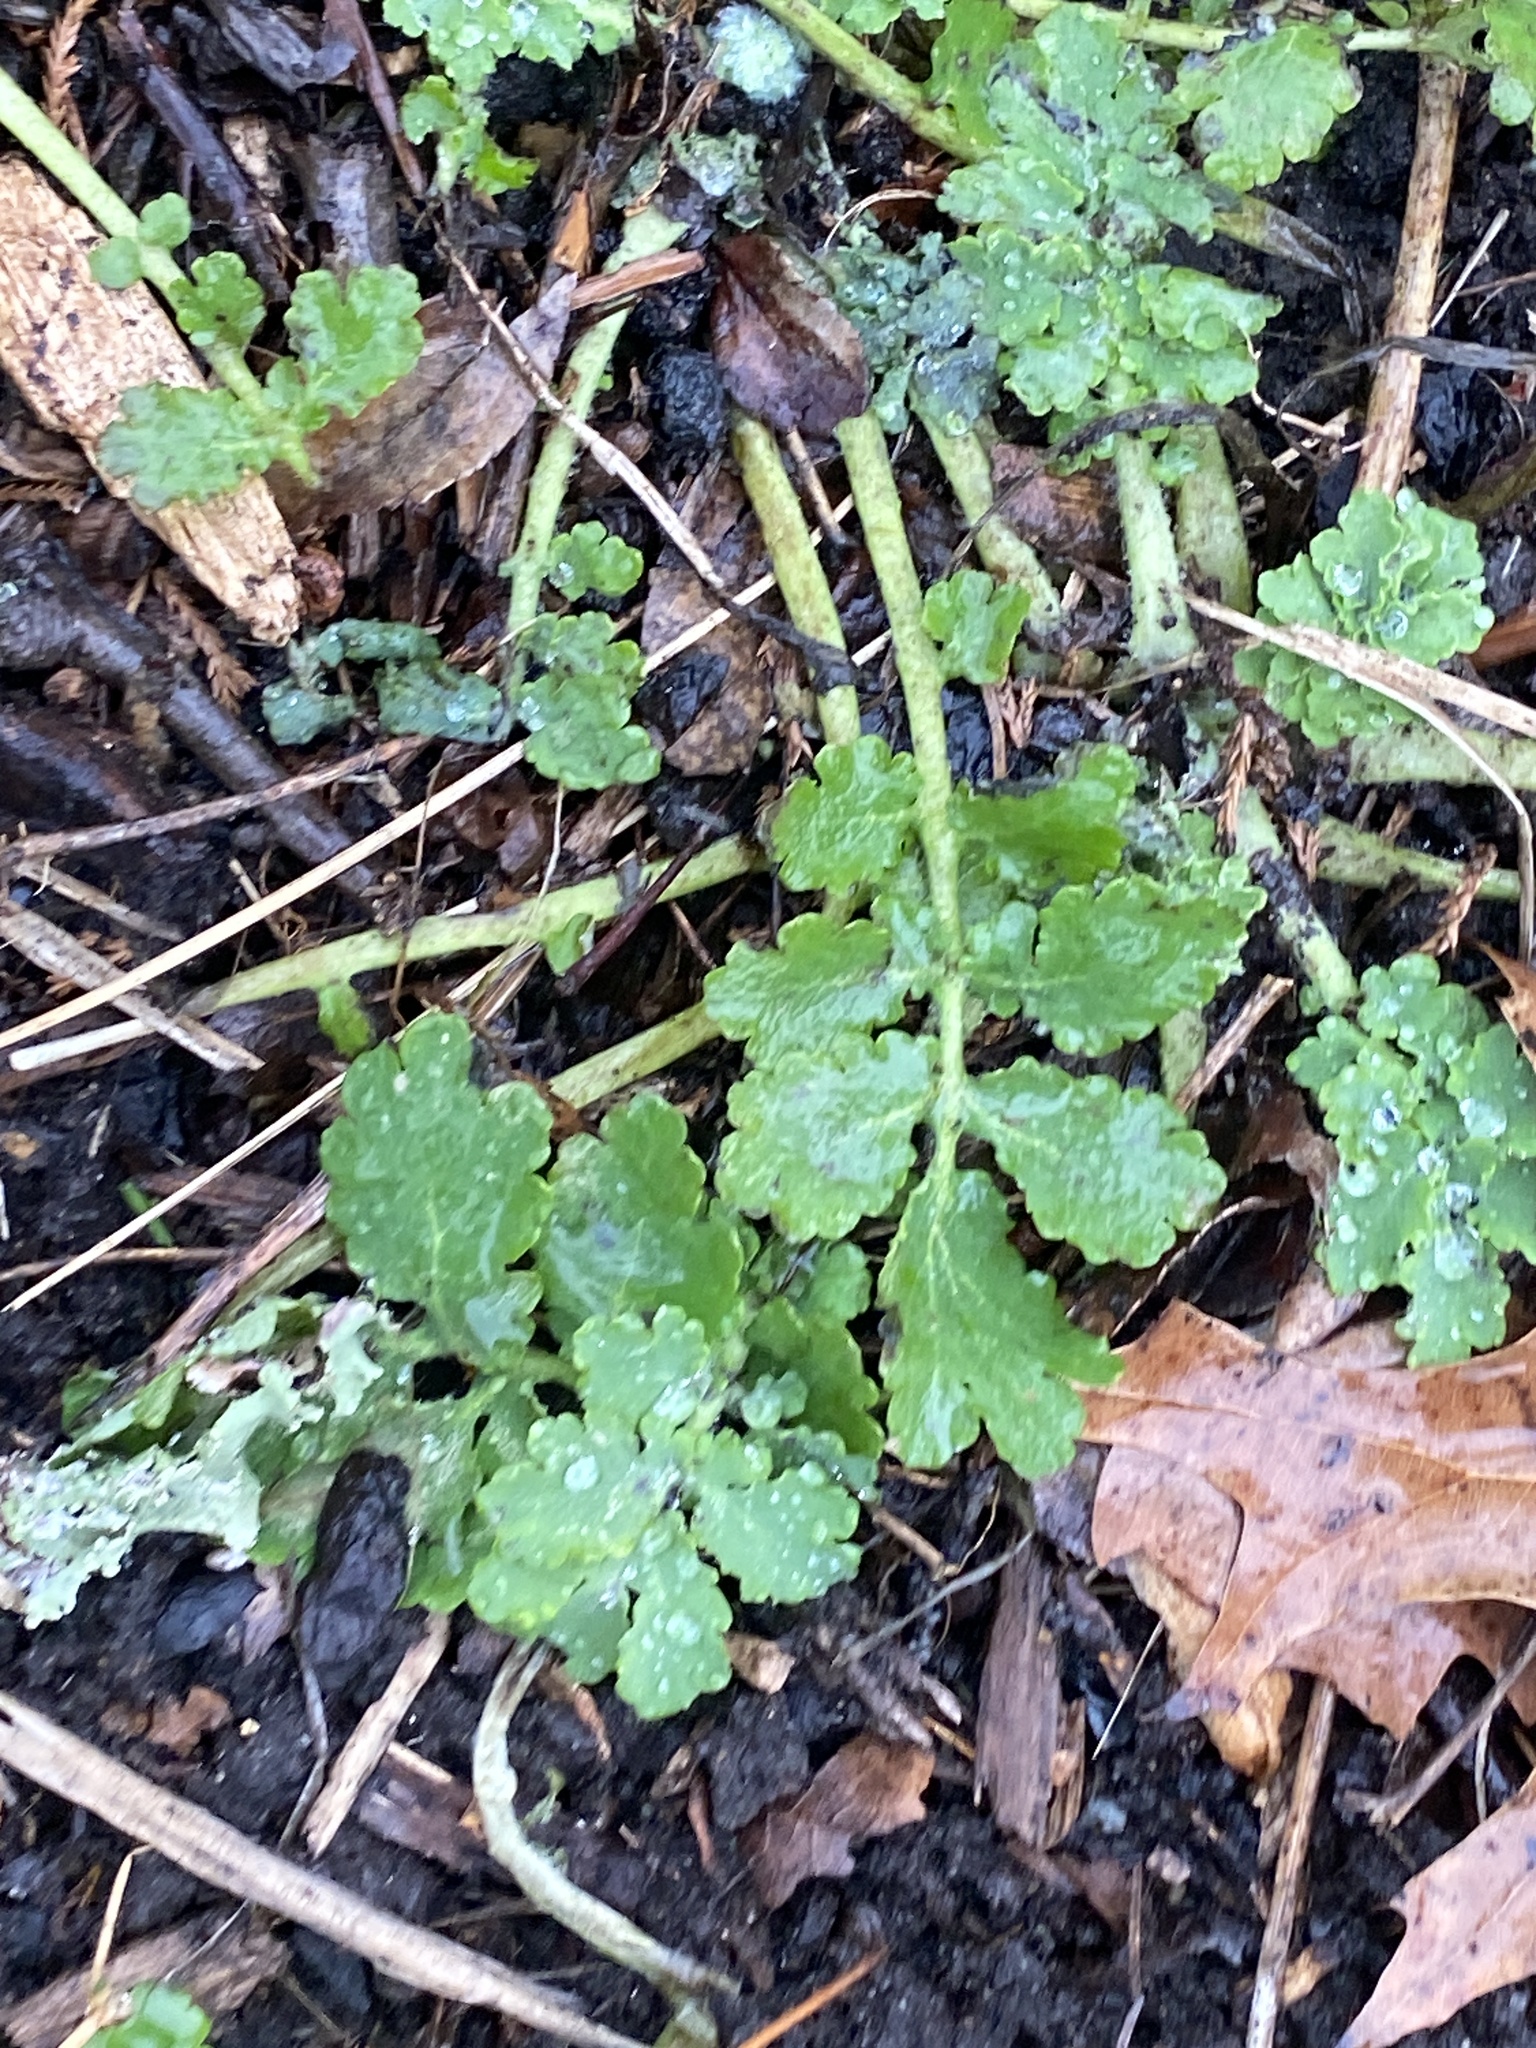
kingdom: Plantae
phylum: Tracheophyta
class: Magnoliopsida
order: Ranunculales
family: Papaveraceae
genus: Chelidonium
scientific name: Chelidonium majus
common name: Greater celandine
